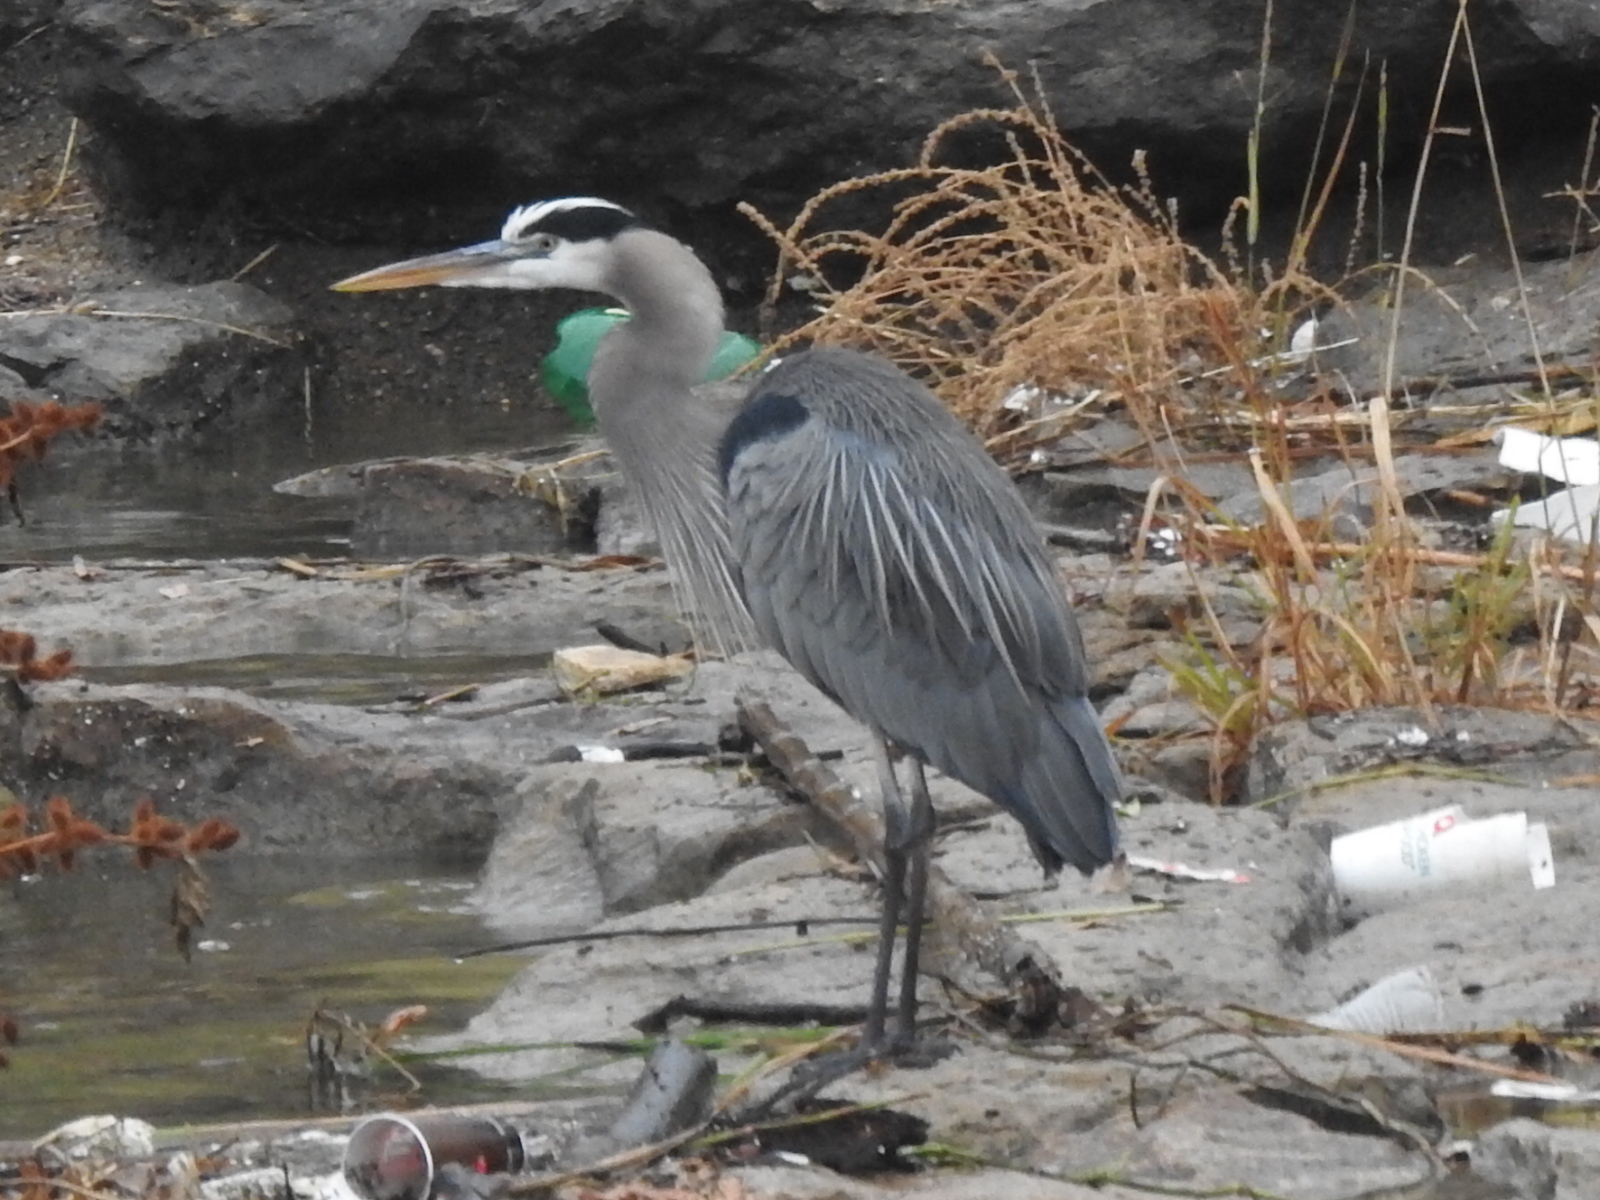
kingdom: Animalia
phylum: Chordata
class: Aves
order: Pelecaniformes
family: Ardeidae
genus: Ardea
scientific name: Ardea herodias
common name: Great blue heron
